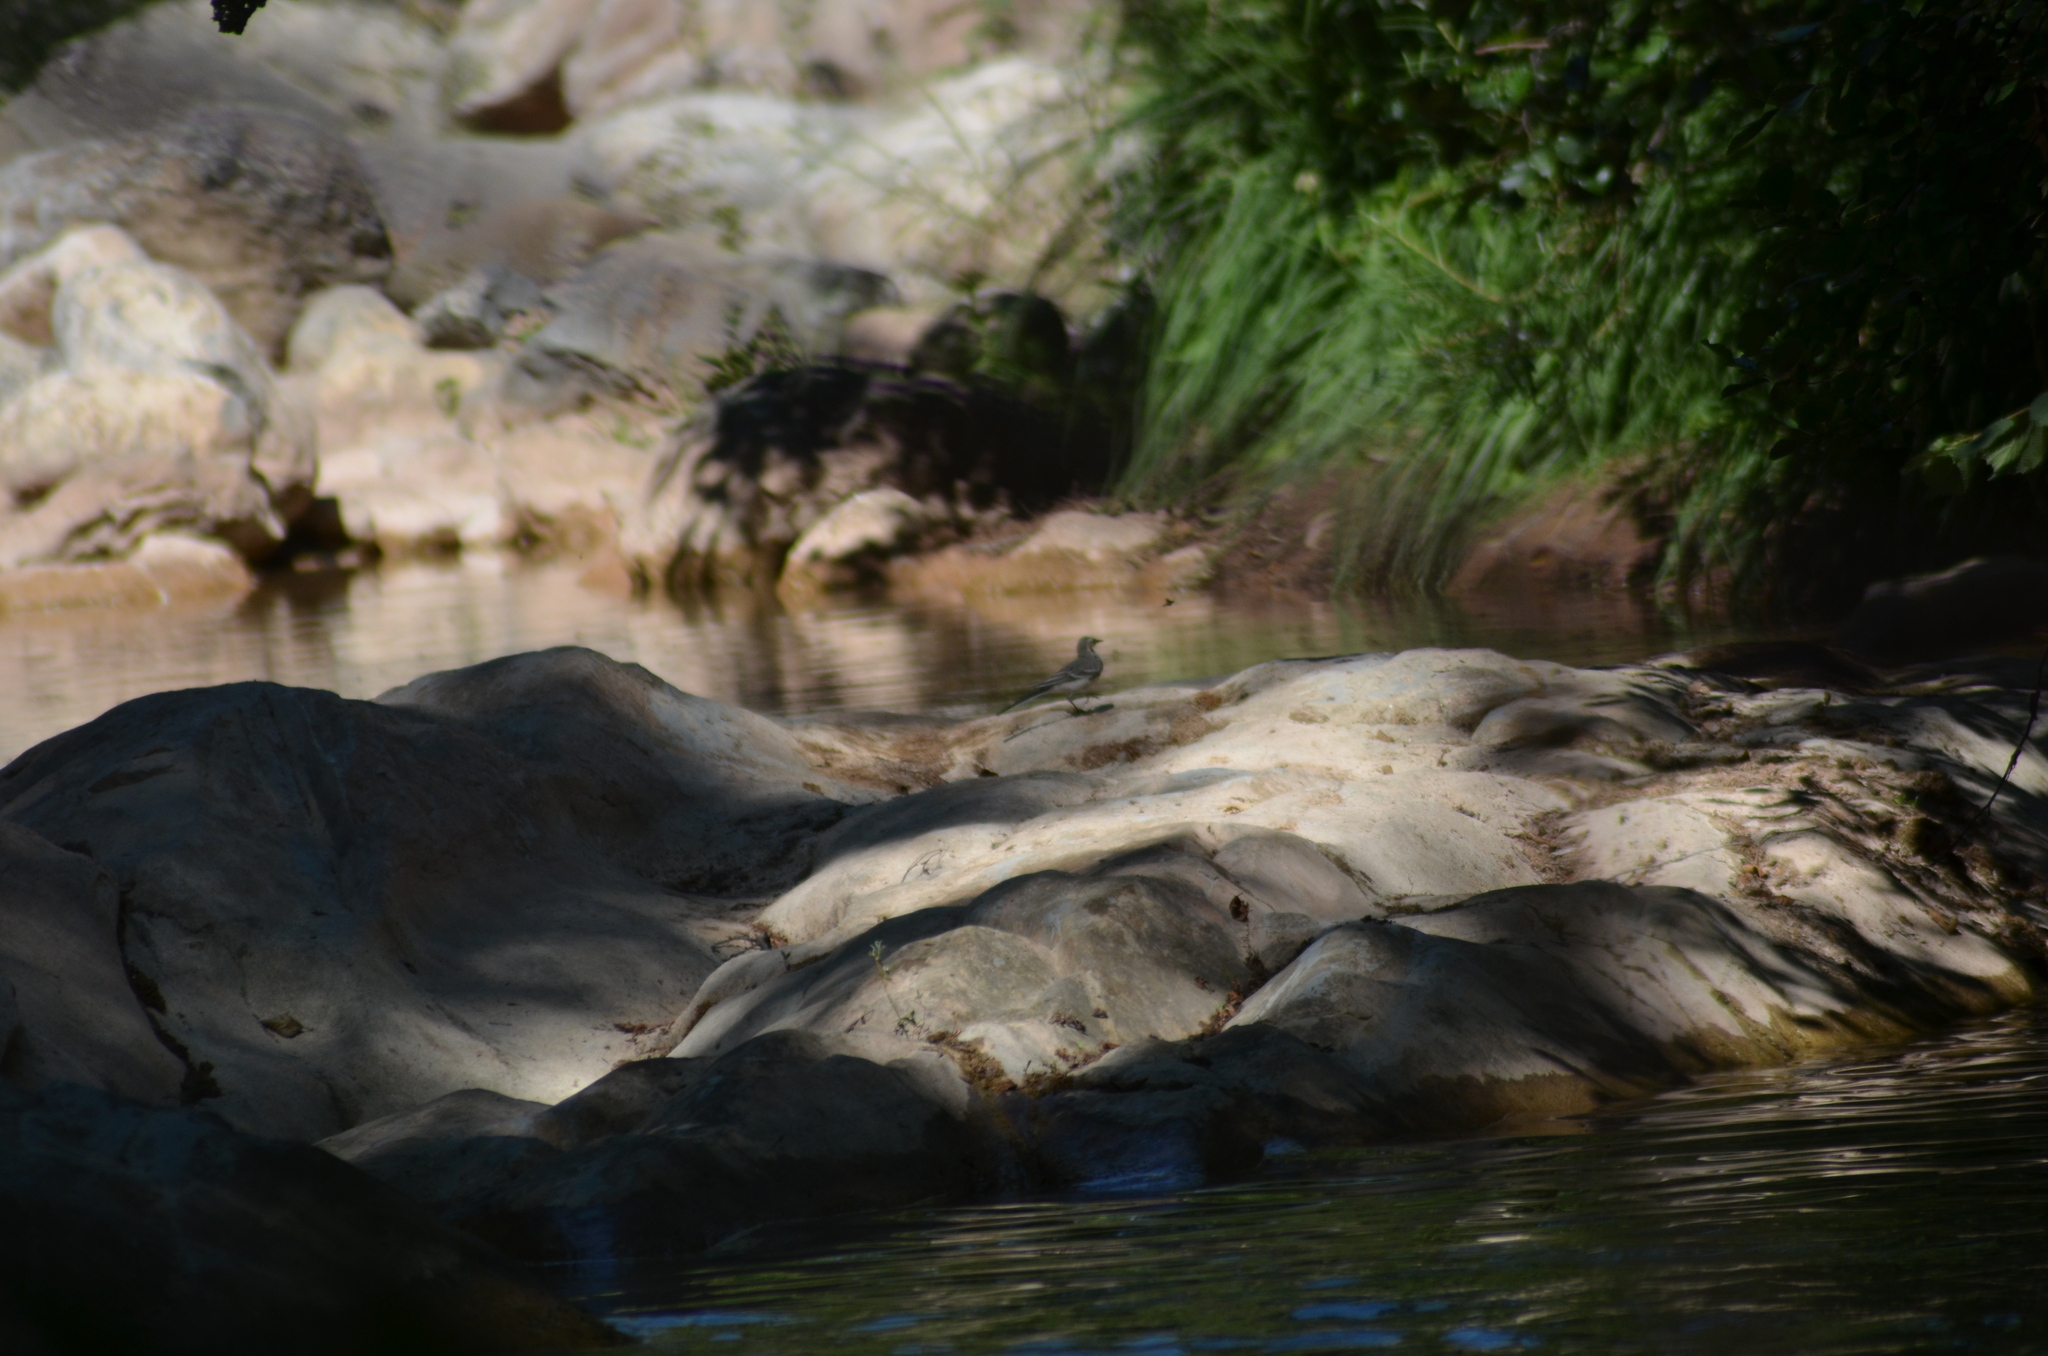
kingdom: Animalia
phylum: Chordata
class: Aves
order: Passeriformes
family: Motacillidae
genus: Motacilla
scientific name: Motacilla alba
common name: White wagtail
